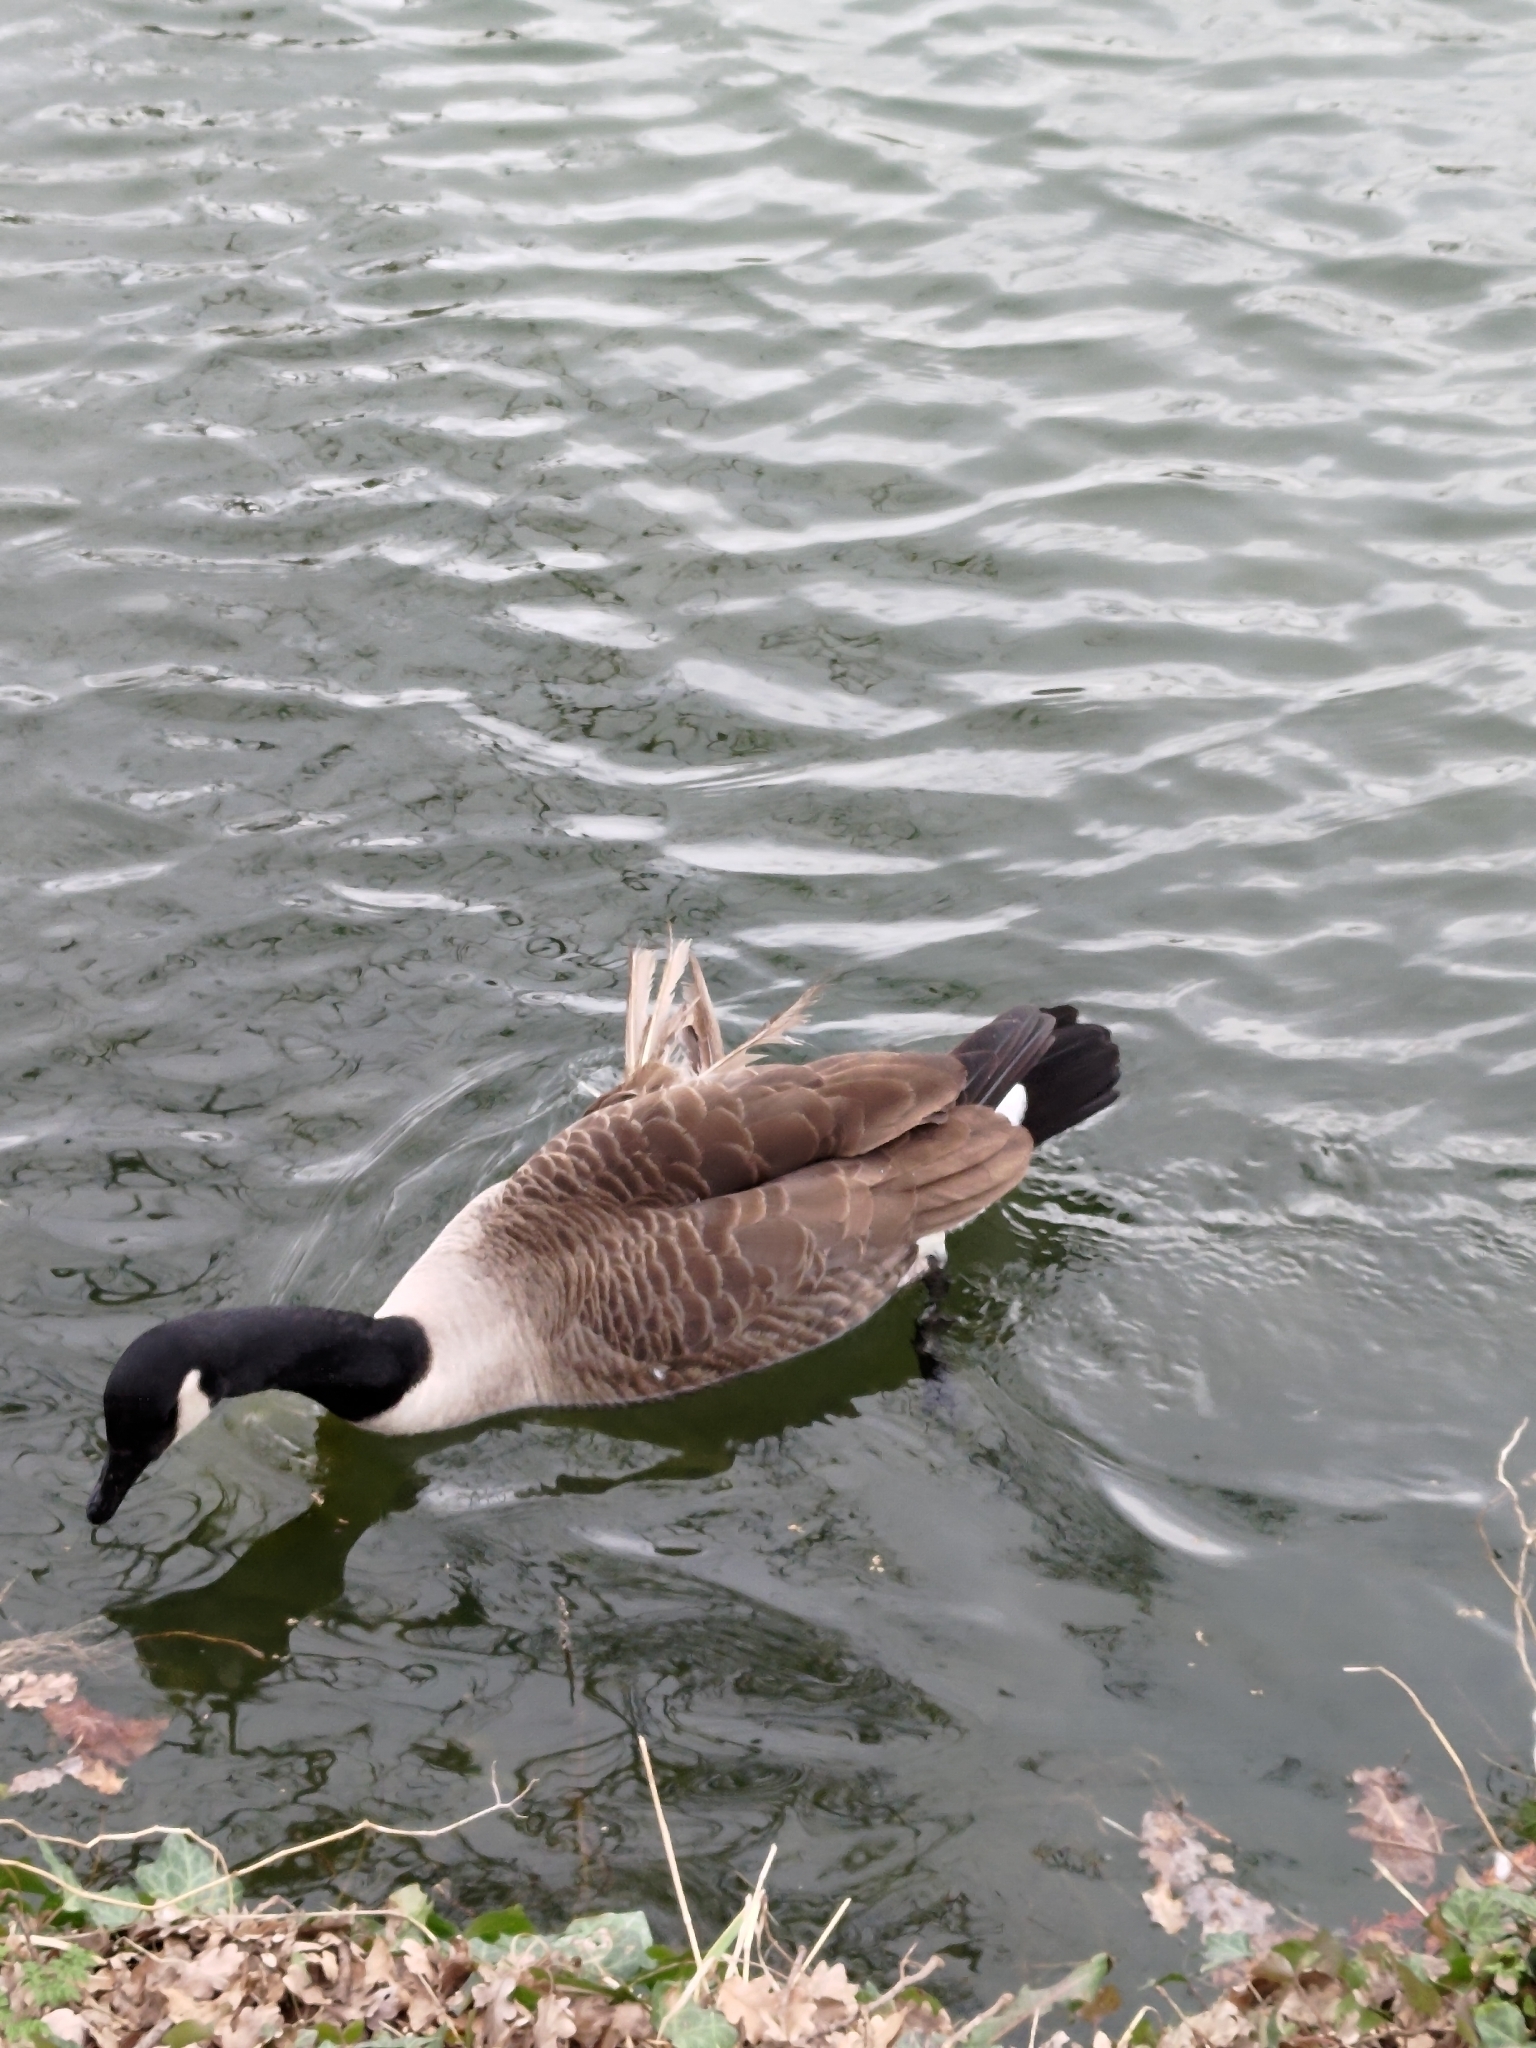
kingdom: Animalia
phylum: Chordata
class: Aves
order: Anseriformes
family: Anatidae
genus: Branta
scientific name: Branta canadensis
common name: Canada goose
